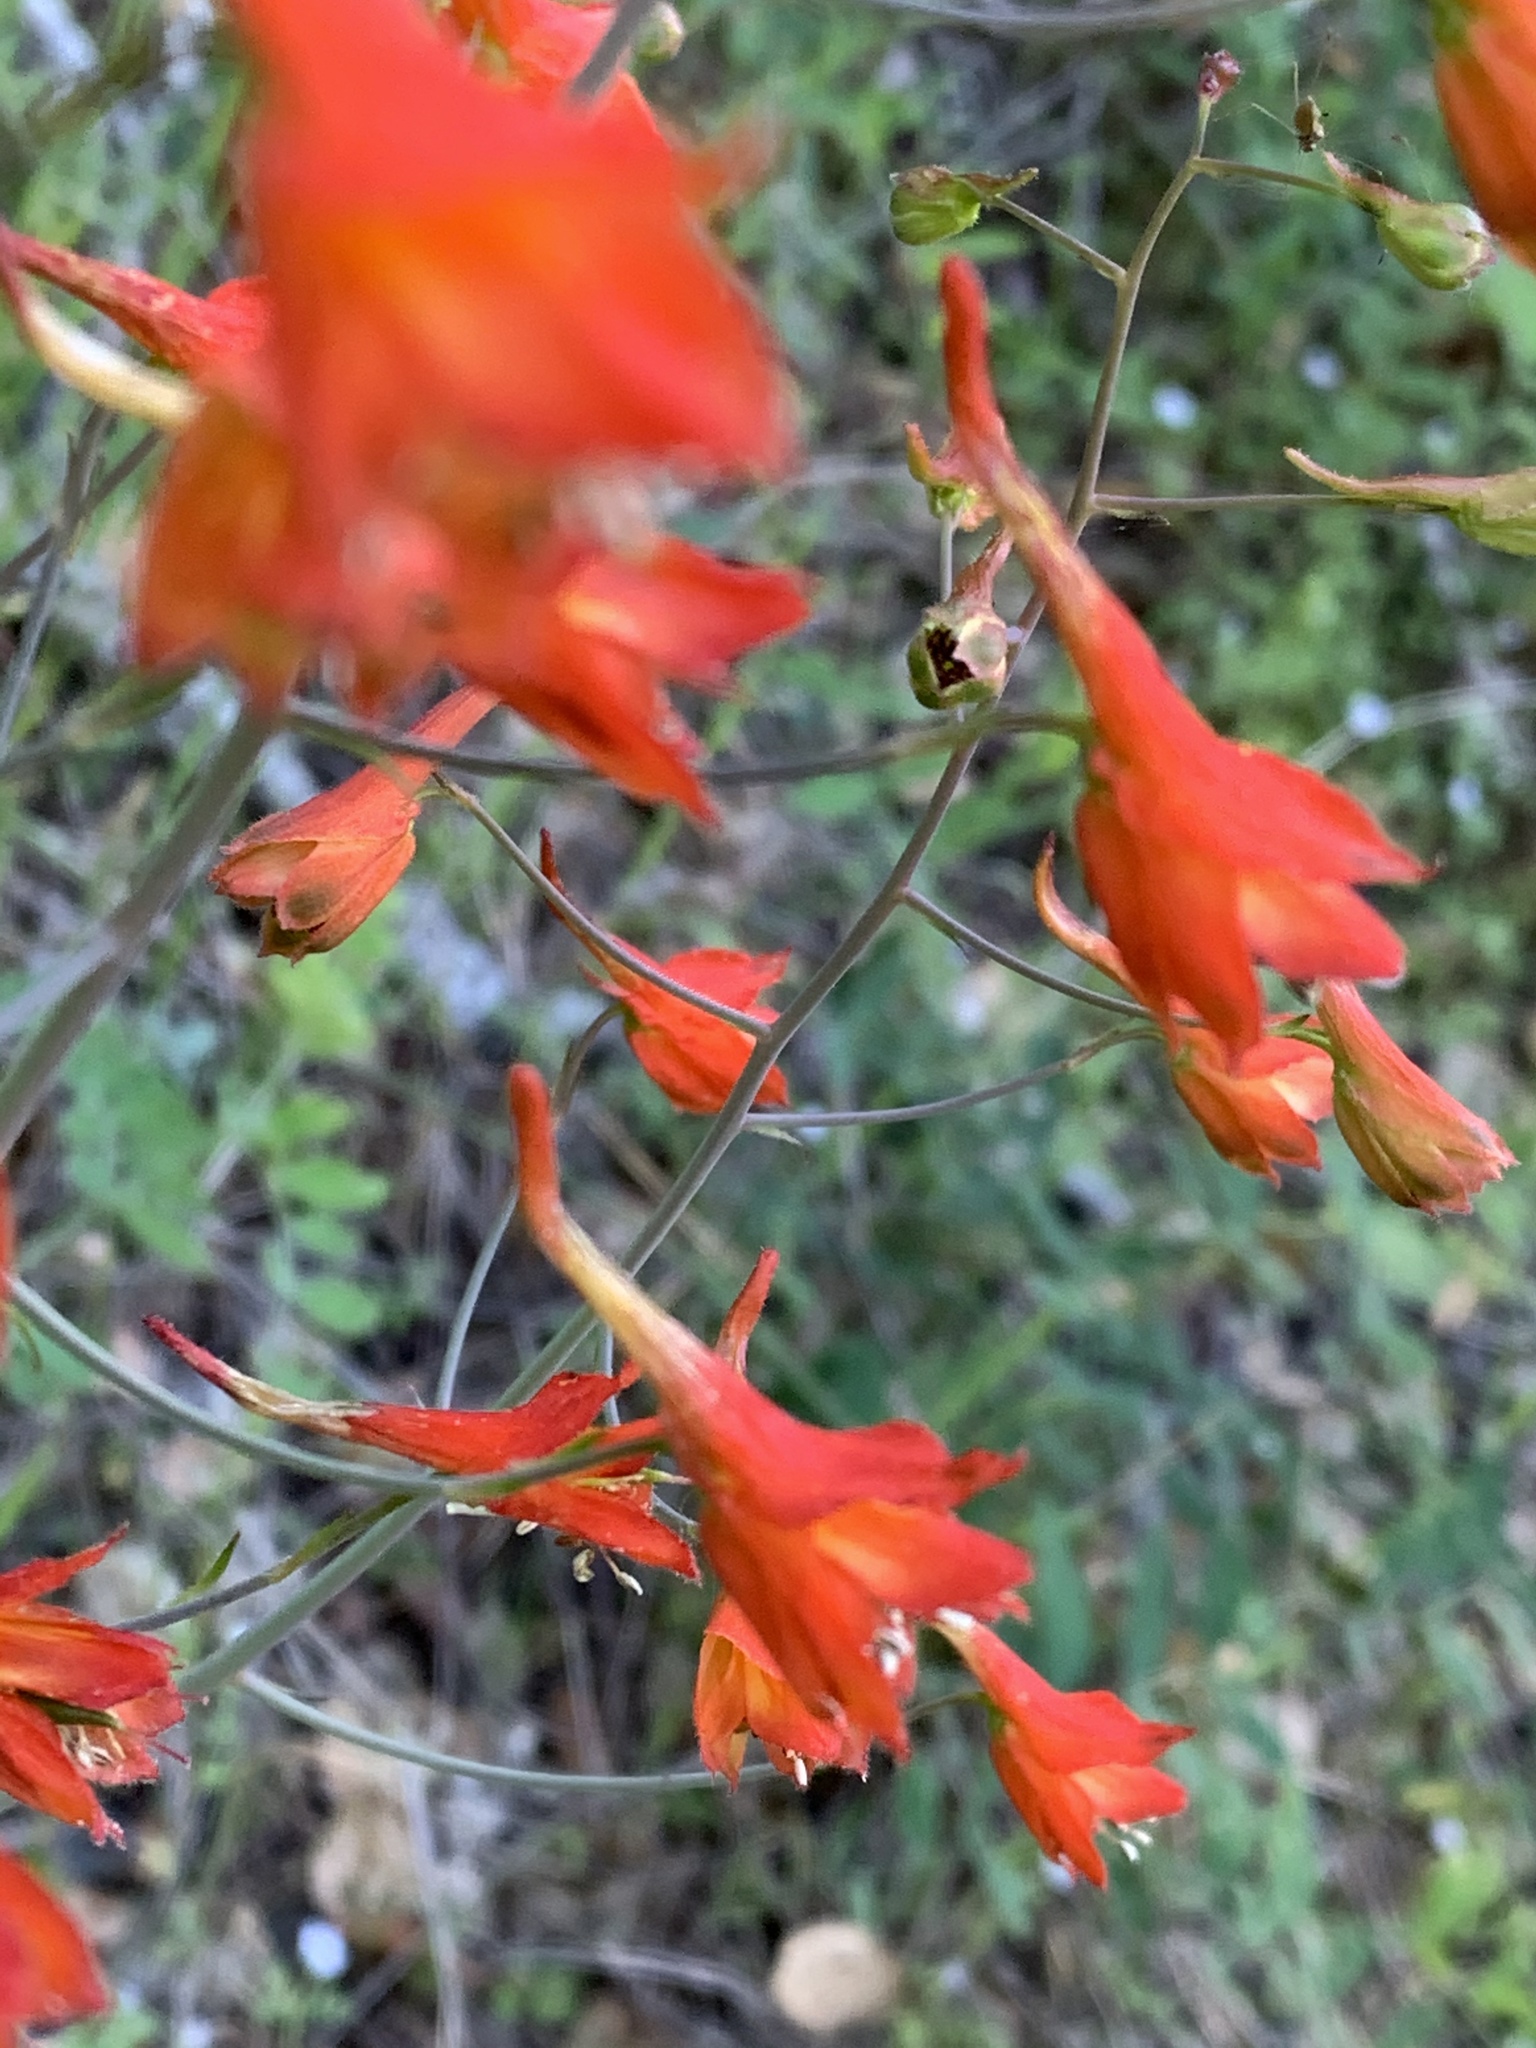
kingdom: Plantae
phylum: Tracheophyta
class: Magnoliopsida
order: Ranunculales
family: Ranunculaceae
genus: Delphinium
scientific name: Delphinium nudicaule
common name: Red larkspur
